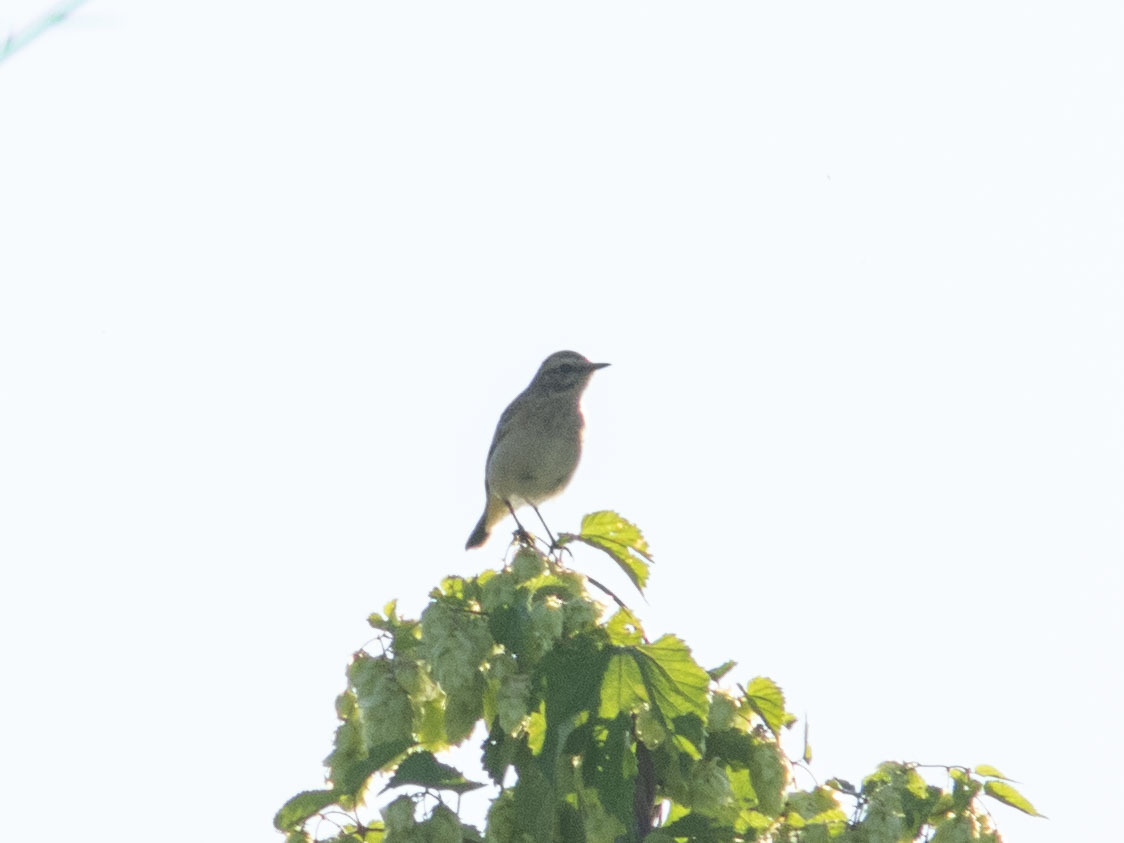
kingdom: Animalia
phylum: Chordata
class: Aves
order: Passeriformes
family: Muscicapidae
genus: Saxicola
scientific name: Saxicola rubetra
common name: Whinchat
